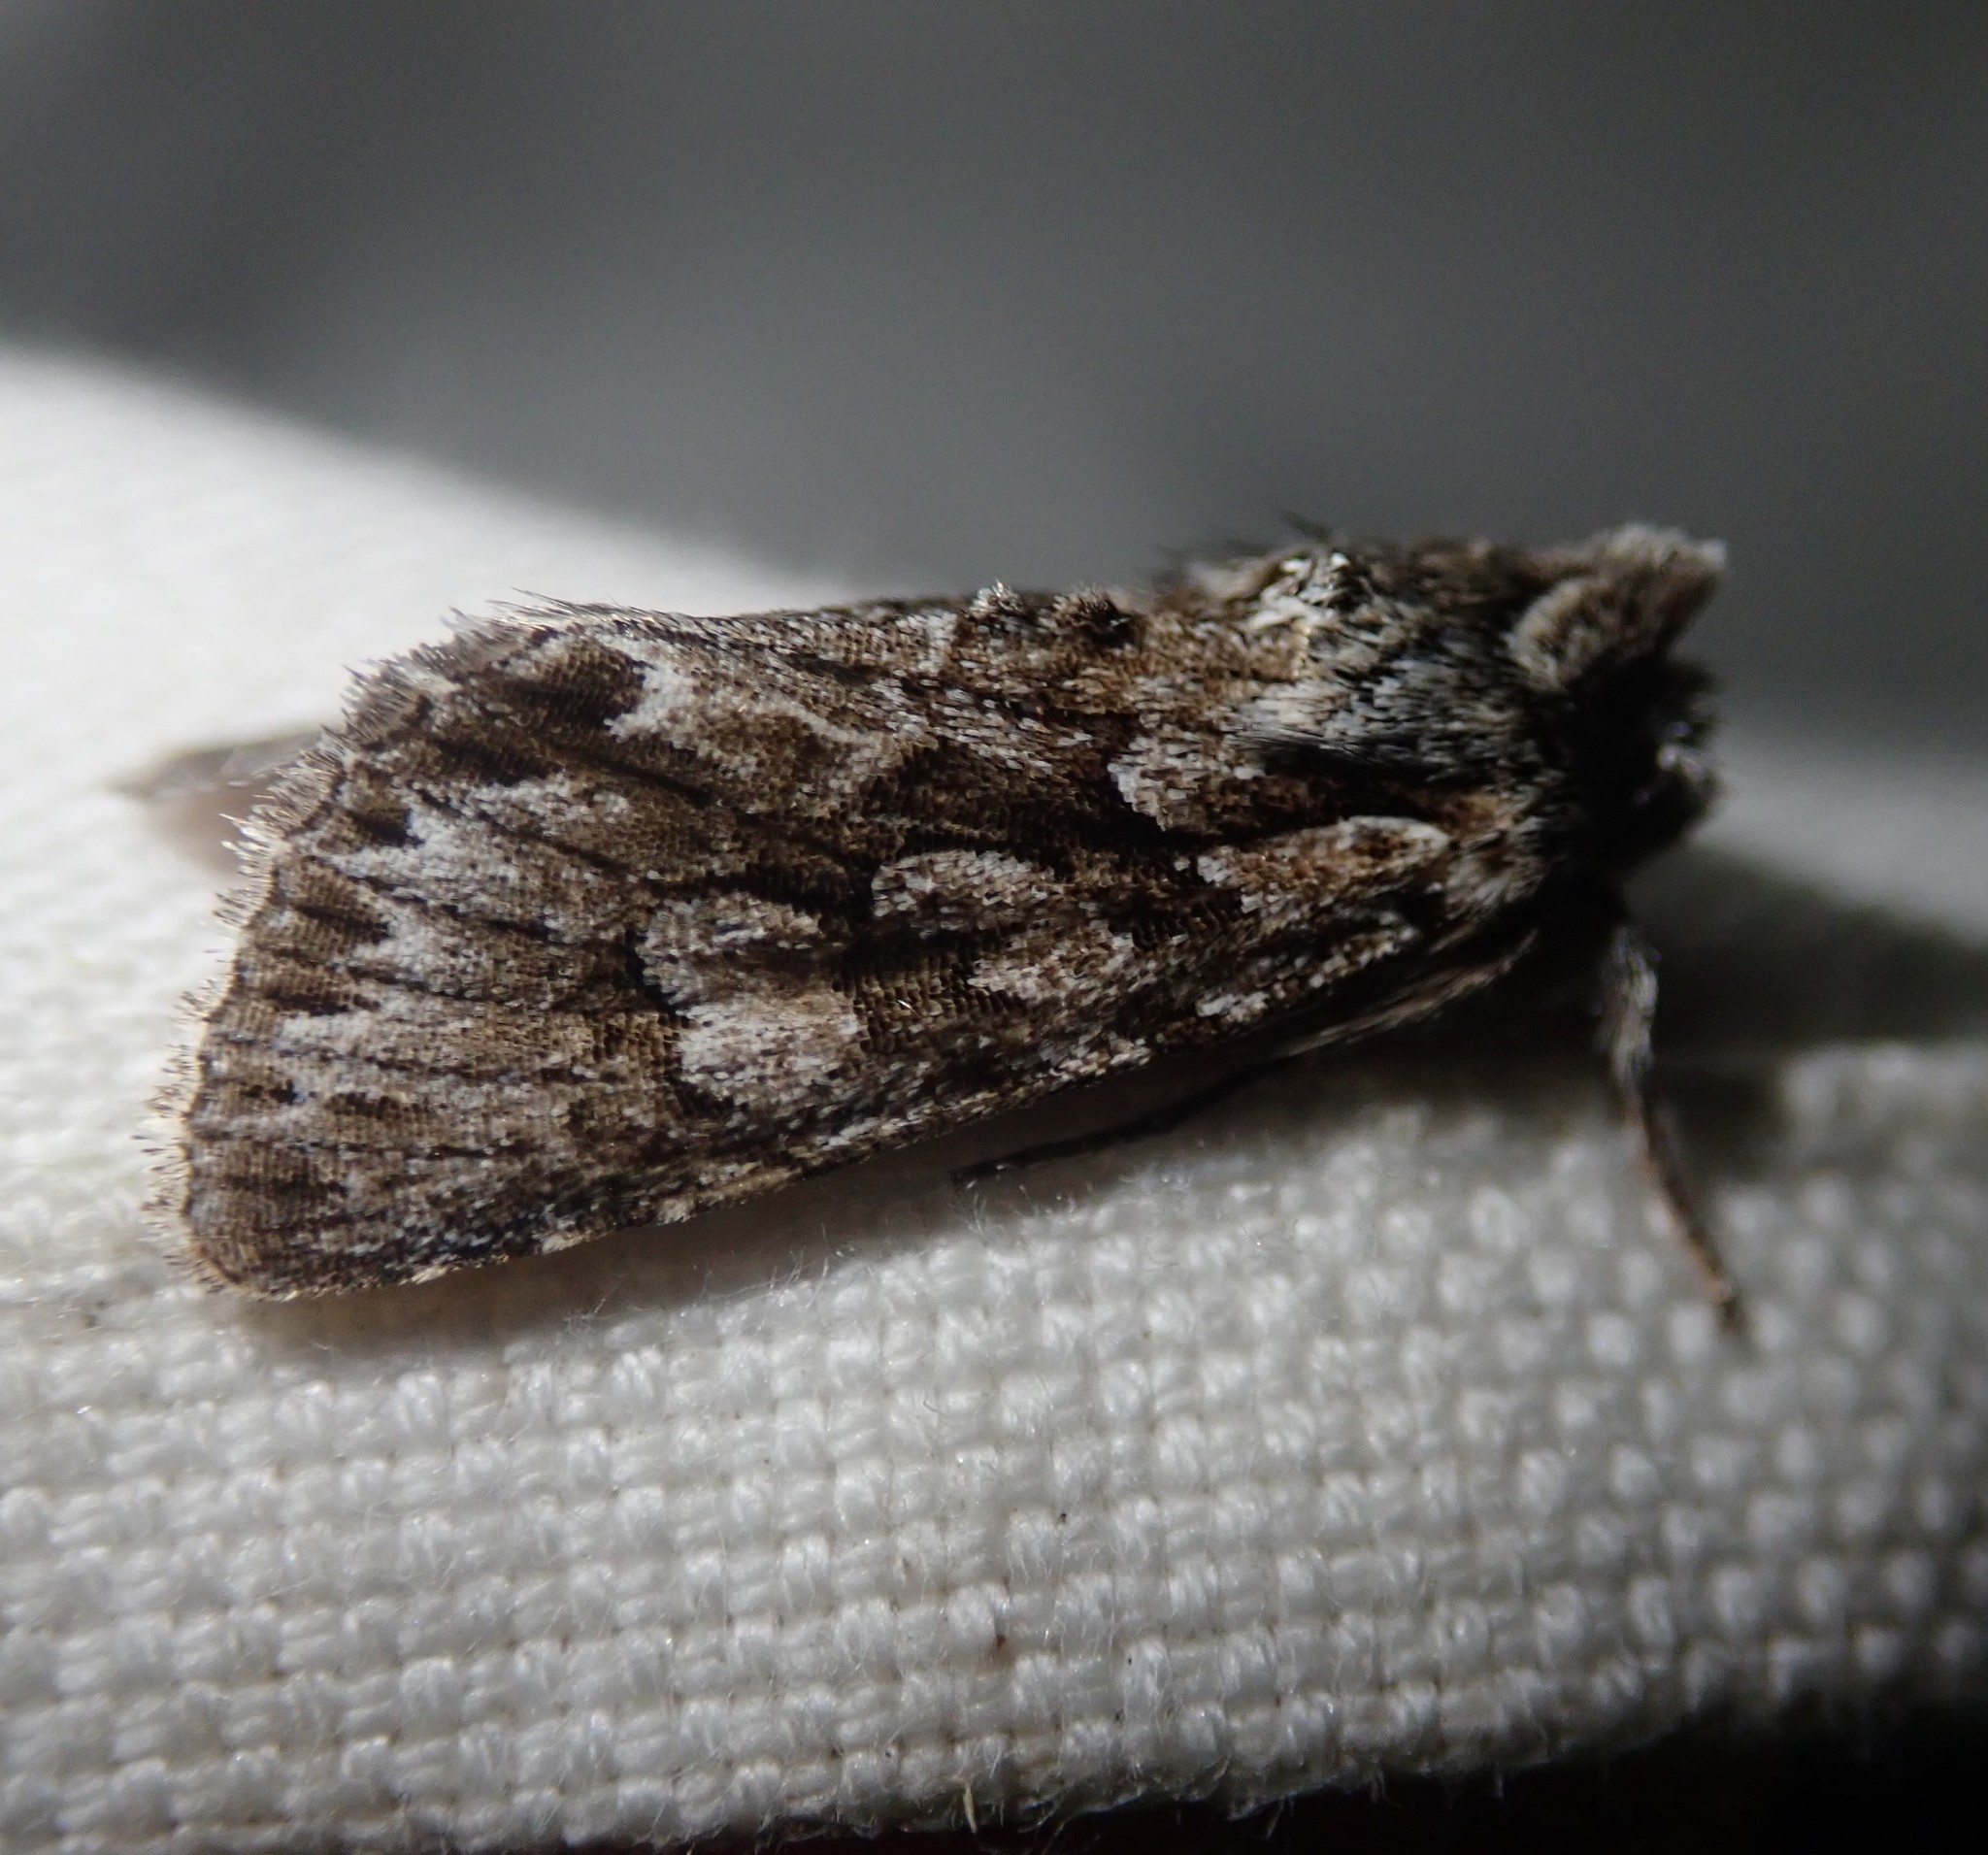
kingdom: Animalia
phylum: Arthropoda
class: Insecta
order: Lepidoptera
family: Noctuidae
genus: Xylocampa
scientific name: Xylocampa areola
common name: Early grey
